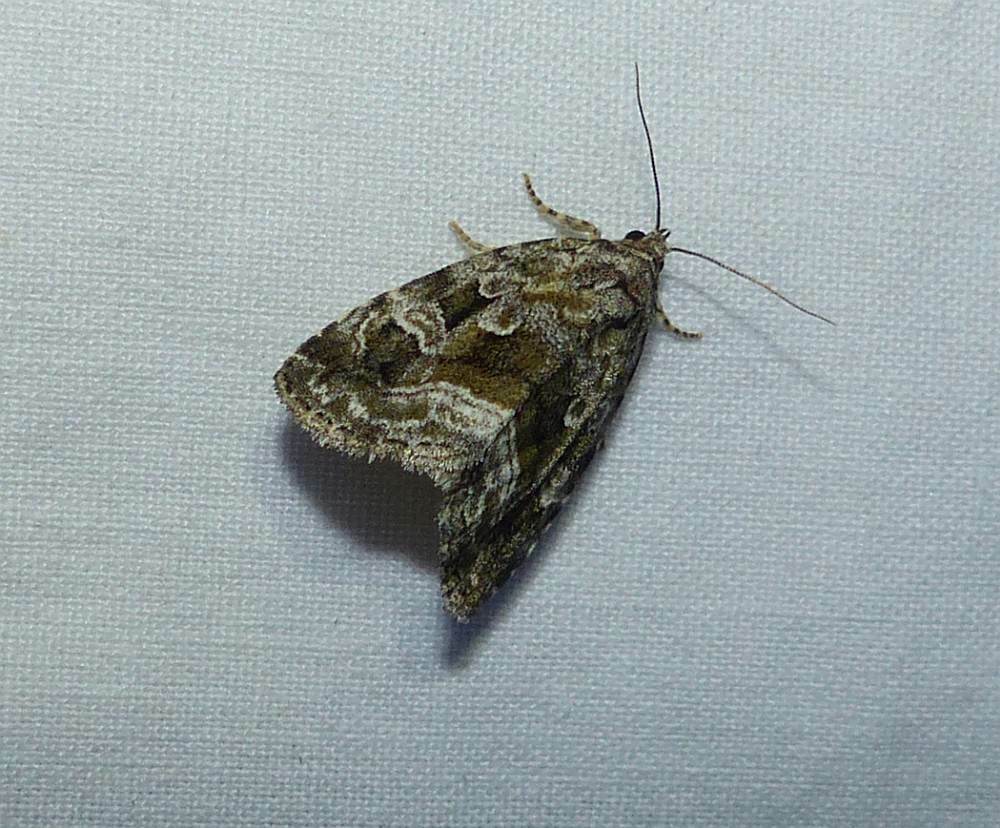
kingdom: Animalia
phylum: Arthropoda
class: Insecta
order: Lepidoptera
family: Noctuidae
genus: Protodeltote
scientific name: Protodeltote muscosula
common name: Large mossy glyph
